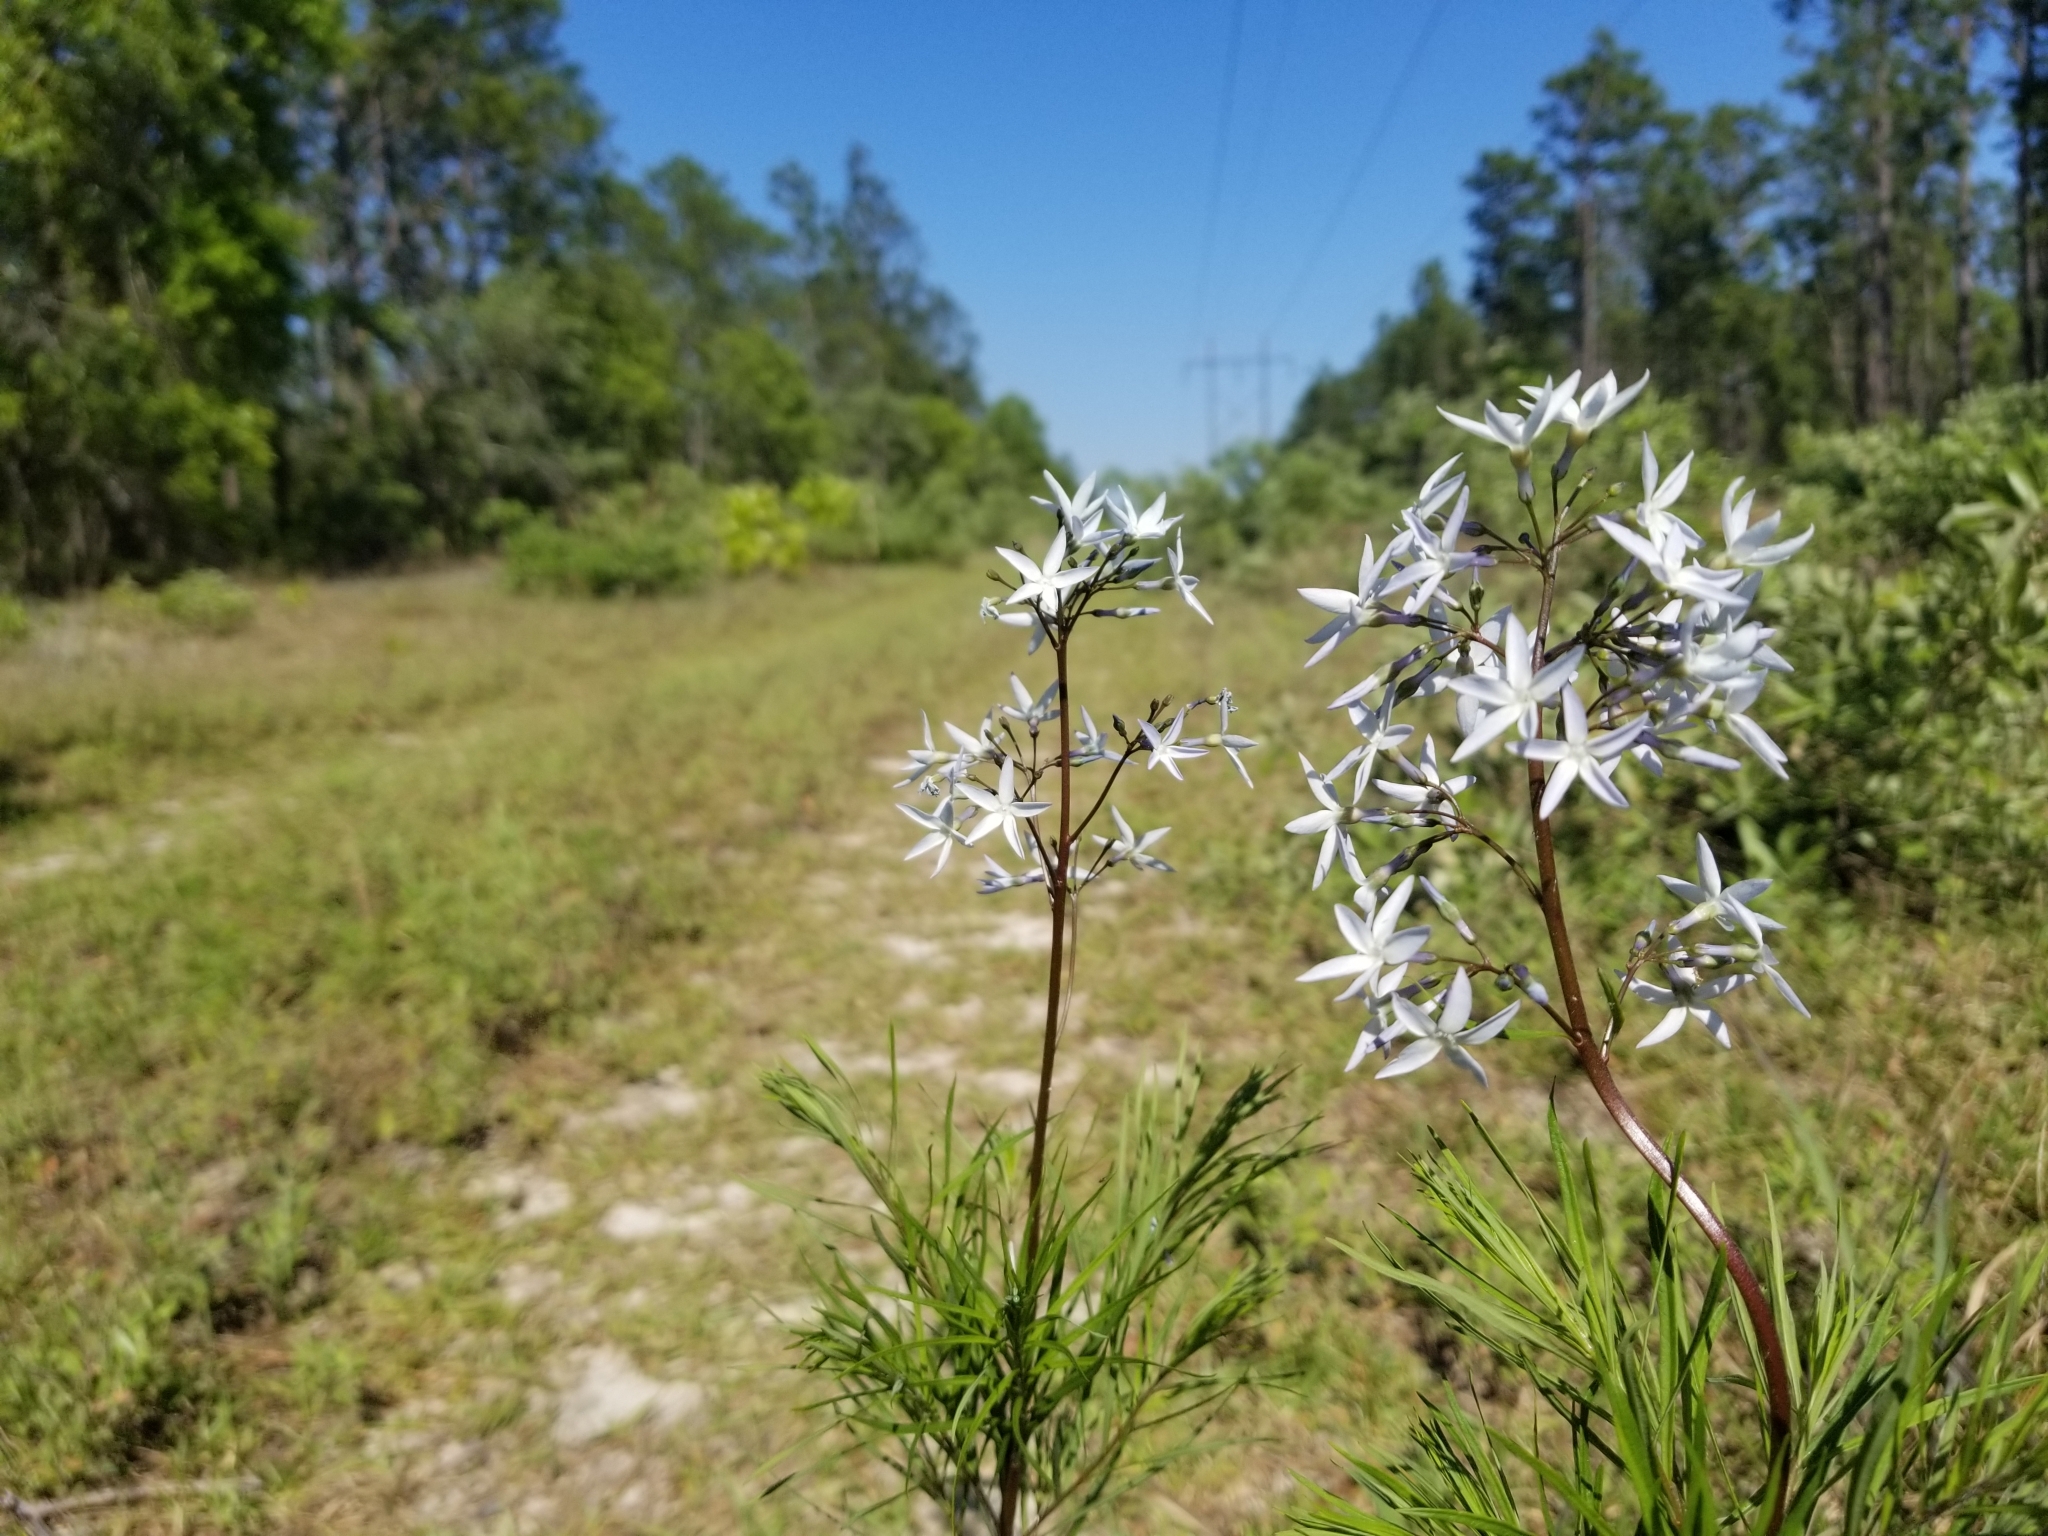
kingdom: Plantae
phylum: Tracheophyta
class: Magnoliopsida
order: Gentianales
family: Apocynaceae
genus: Amsonia
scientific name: Amsonia ciliata
